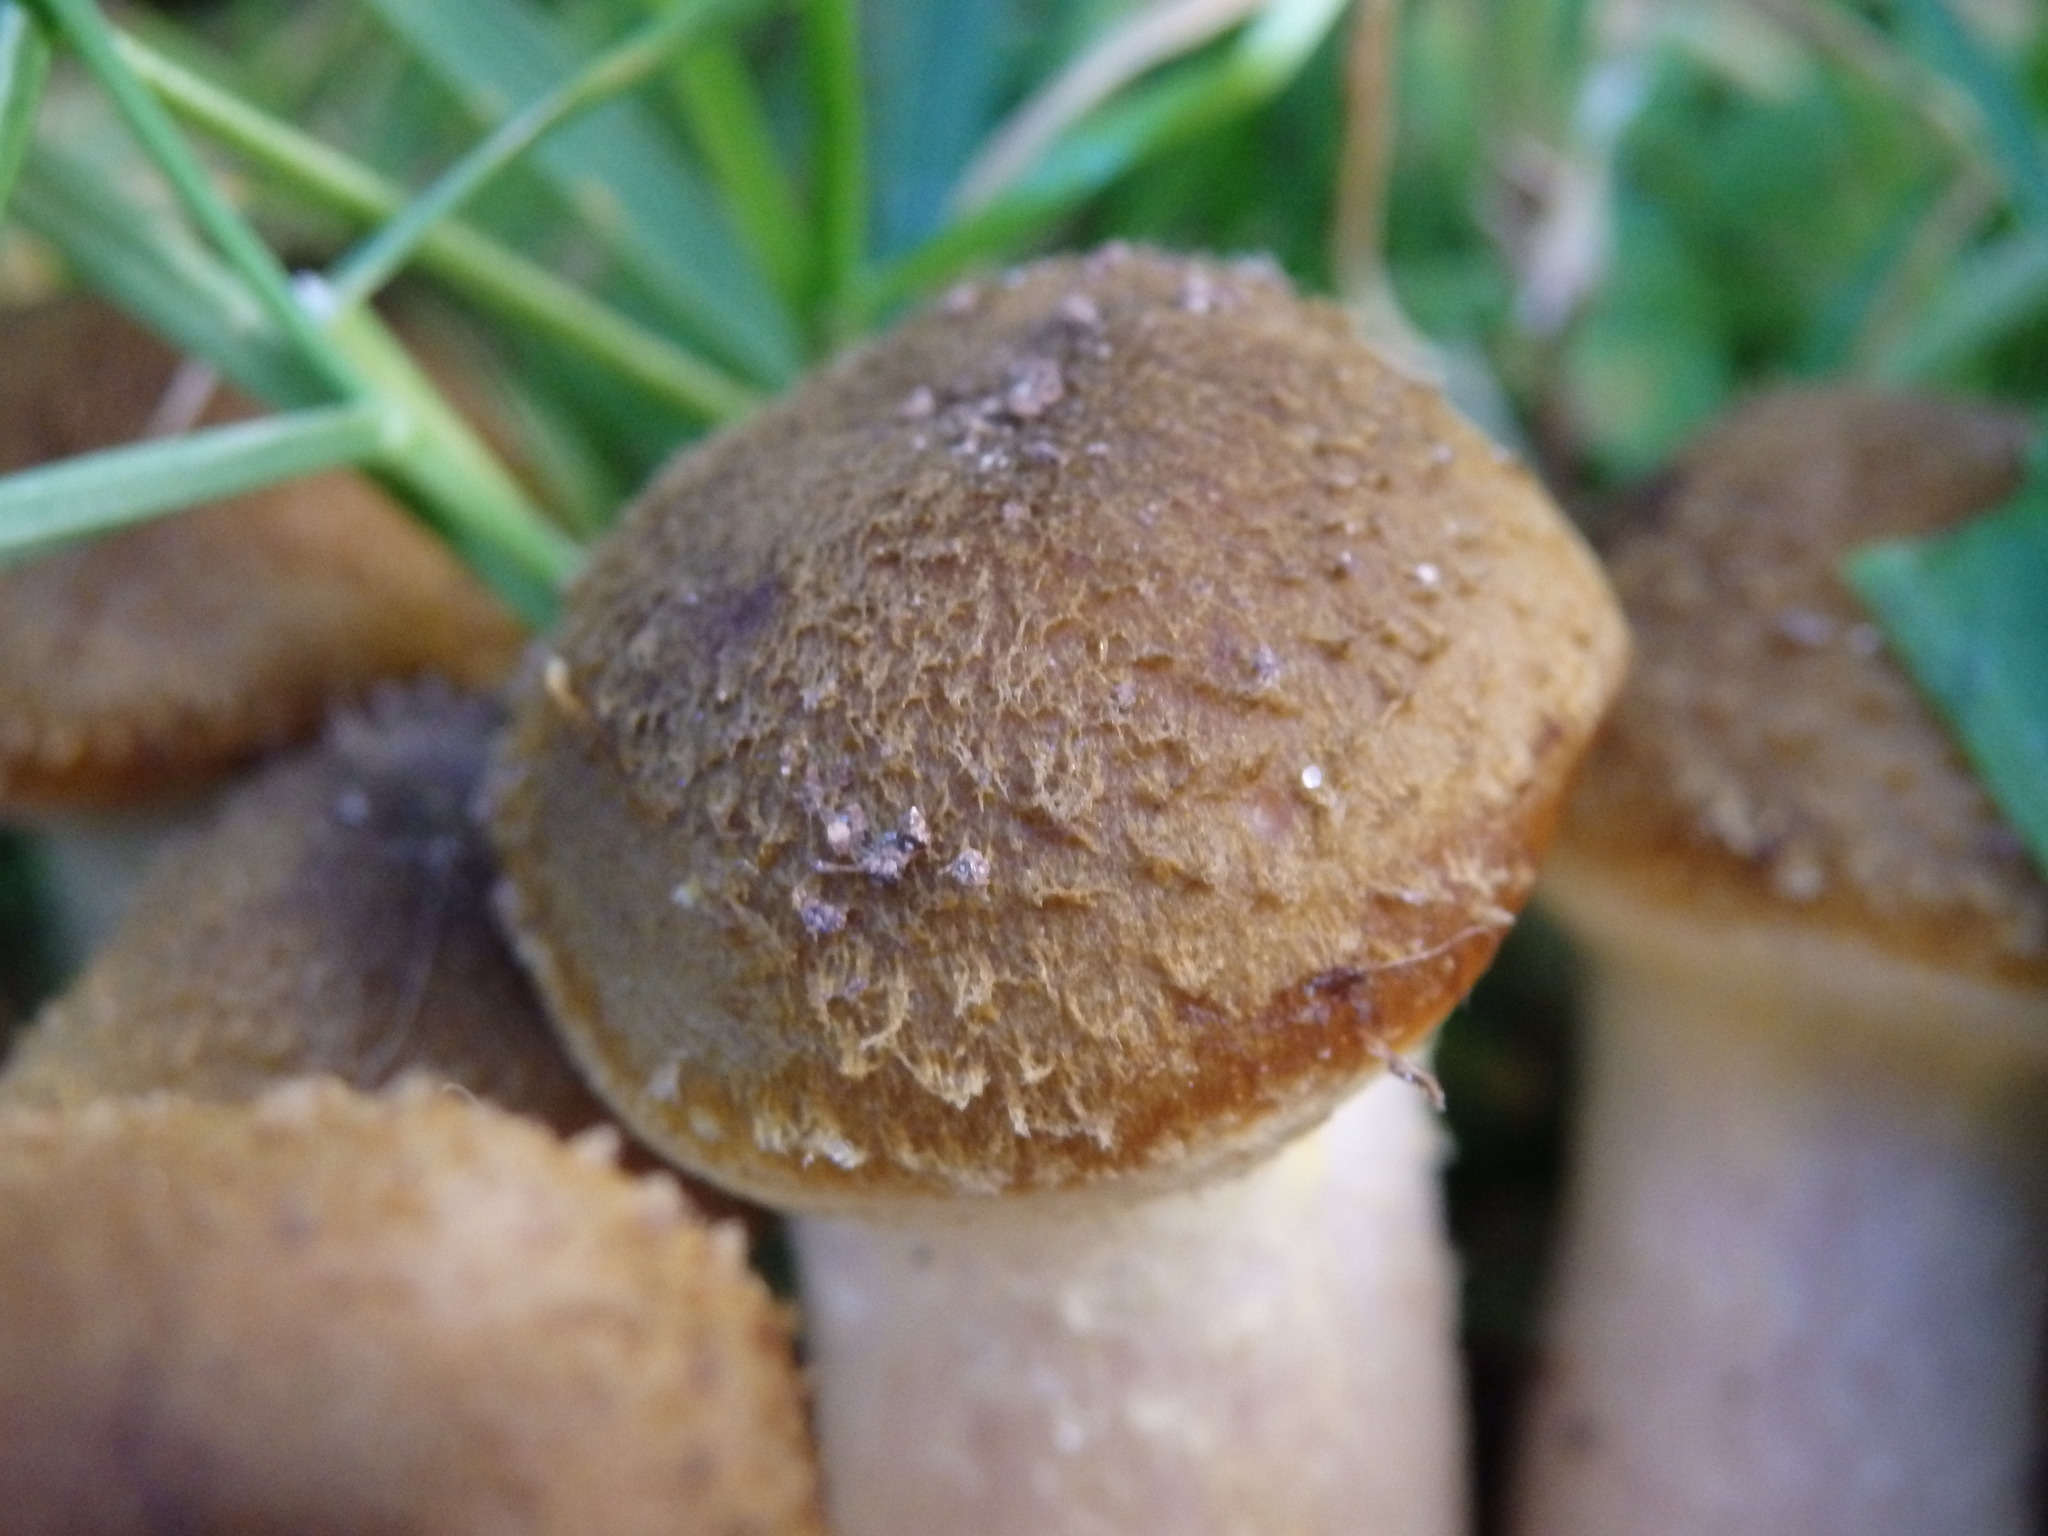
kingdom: Fungi
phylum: Basidiomycota
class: Agaricomycetes
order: Agaricales
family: Physalacriaceae
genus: Armillaria
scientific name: Armillaria mellea
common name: Honey fungus
